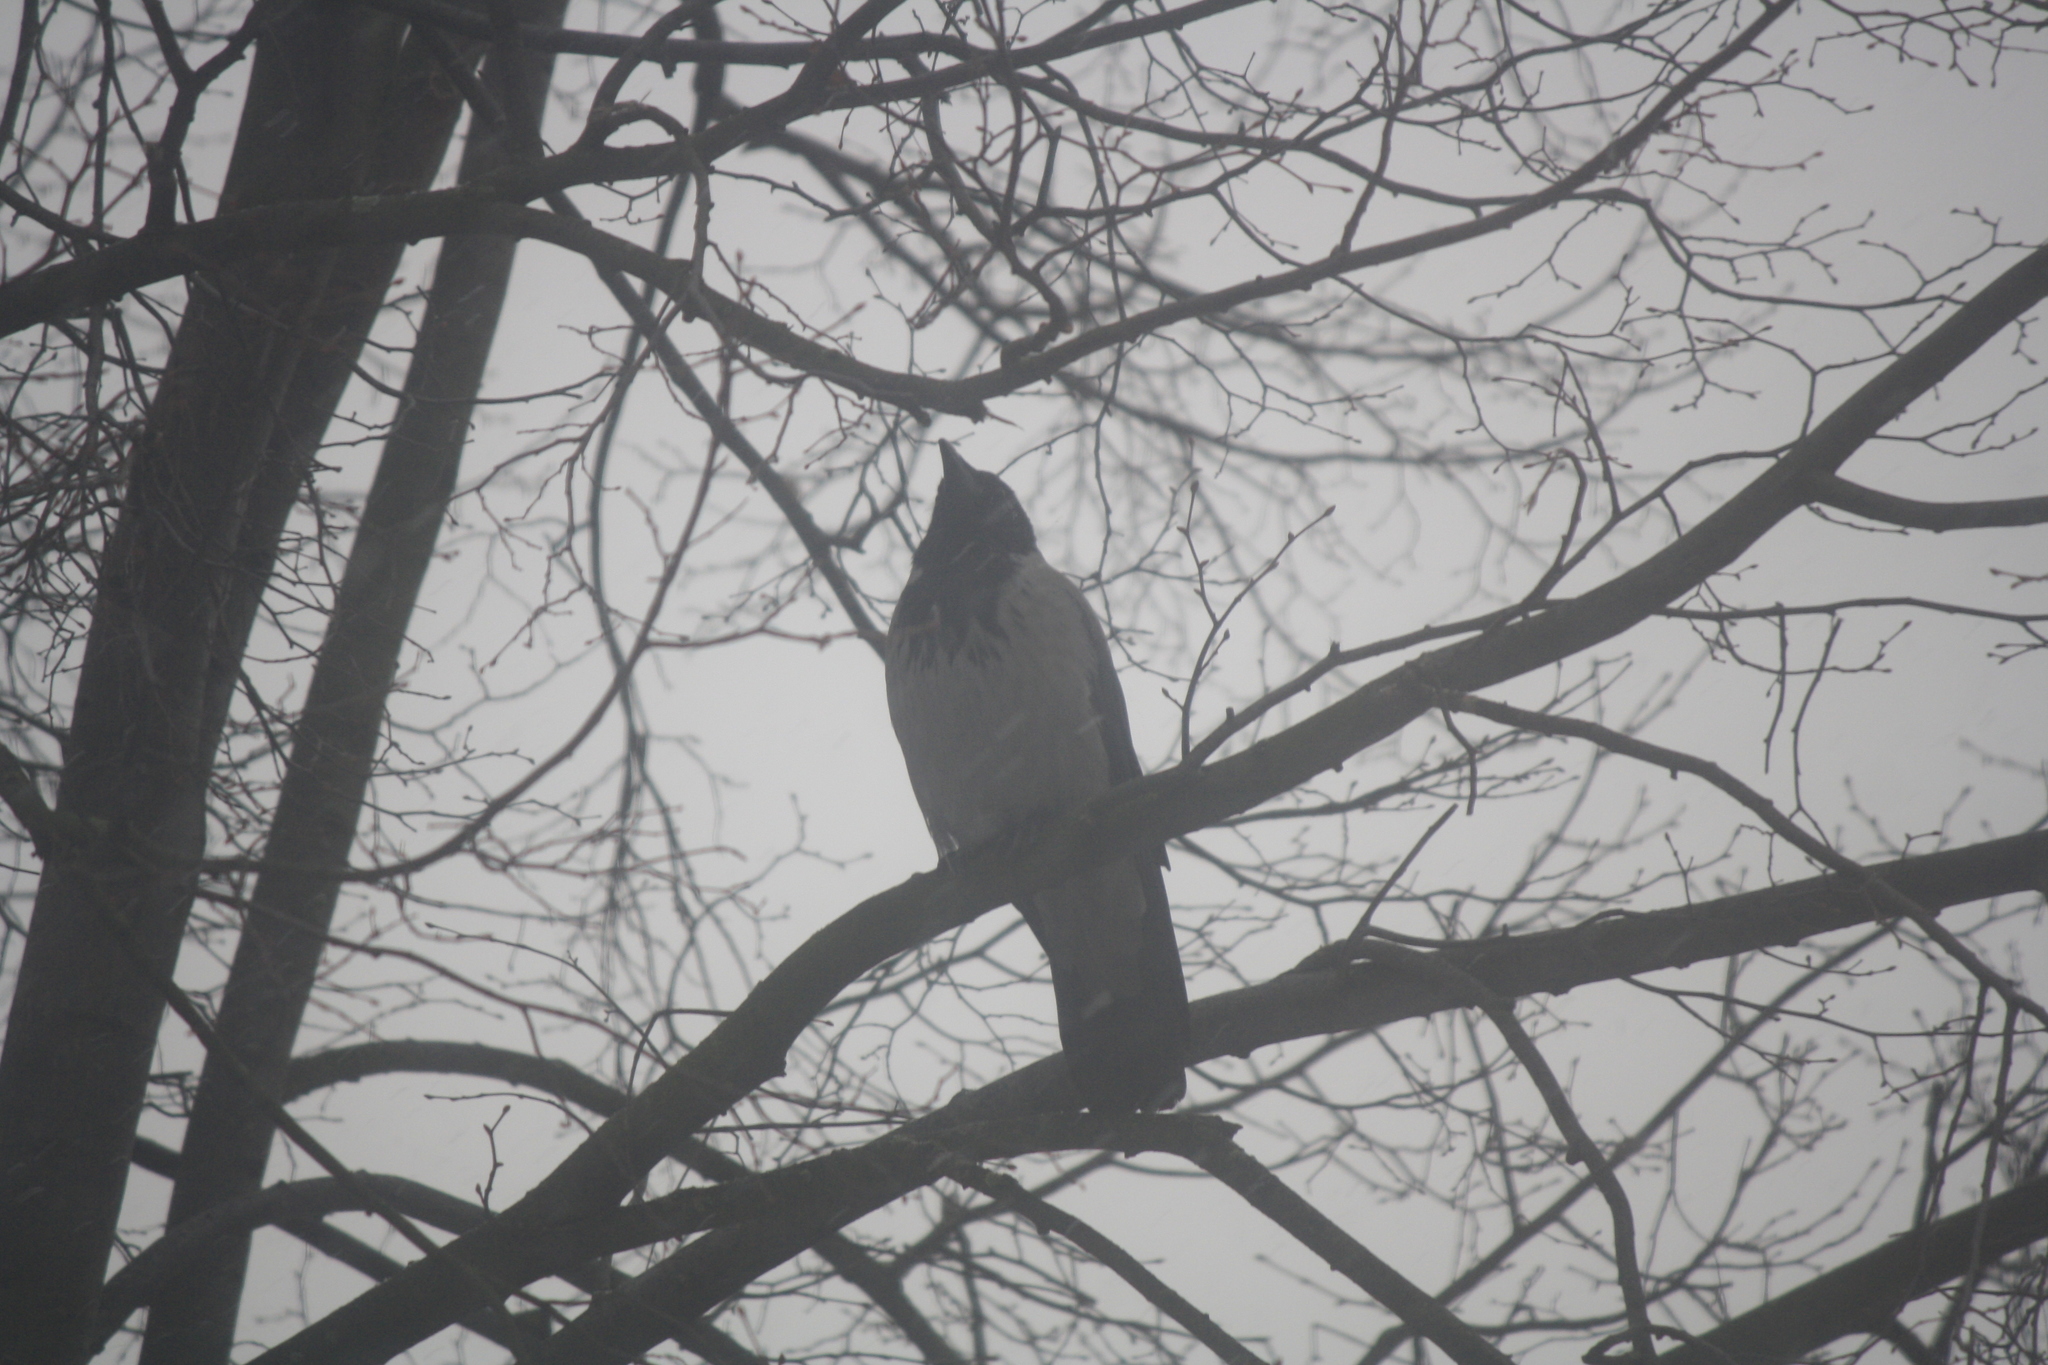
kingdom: Animalia
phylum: Chordata
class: Aves
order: Passeriformes
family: Corvidae
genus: Corvus
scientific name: Corvus cornix
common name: Hooded crow
